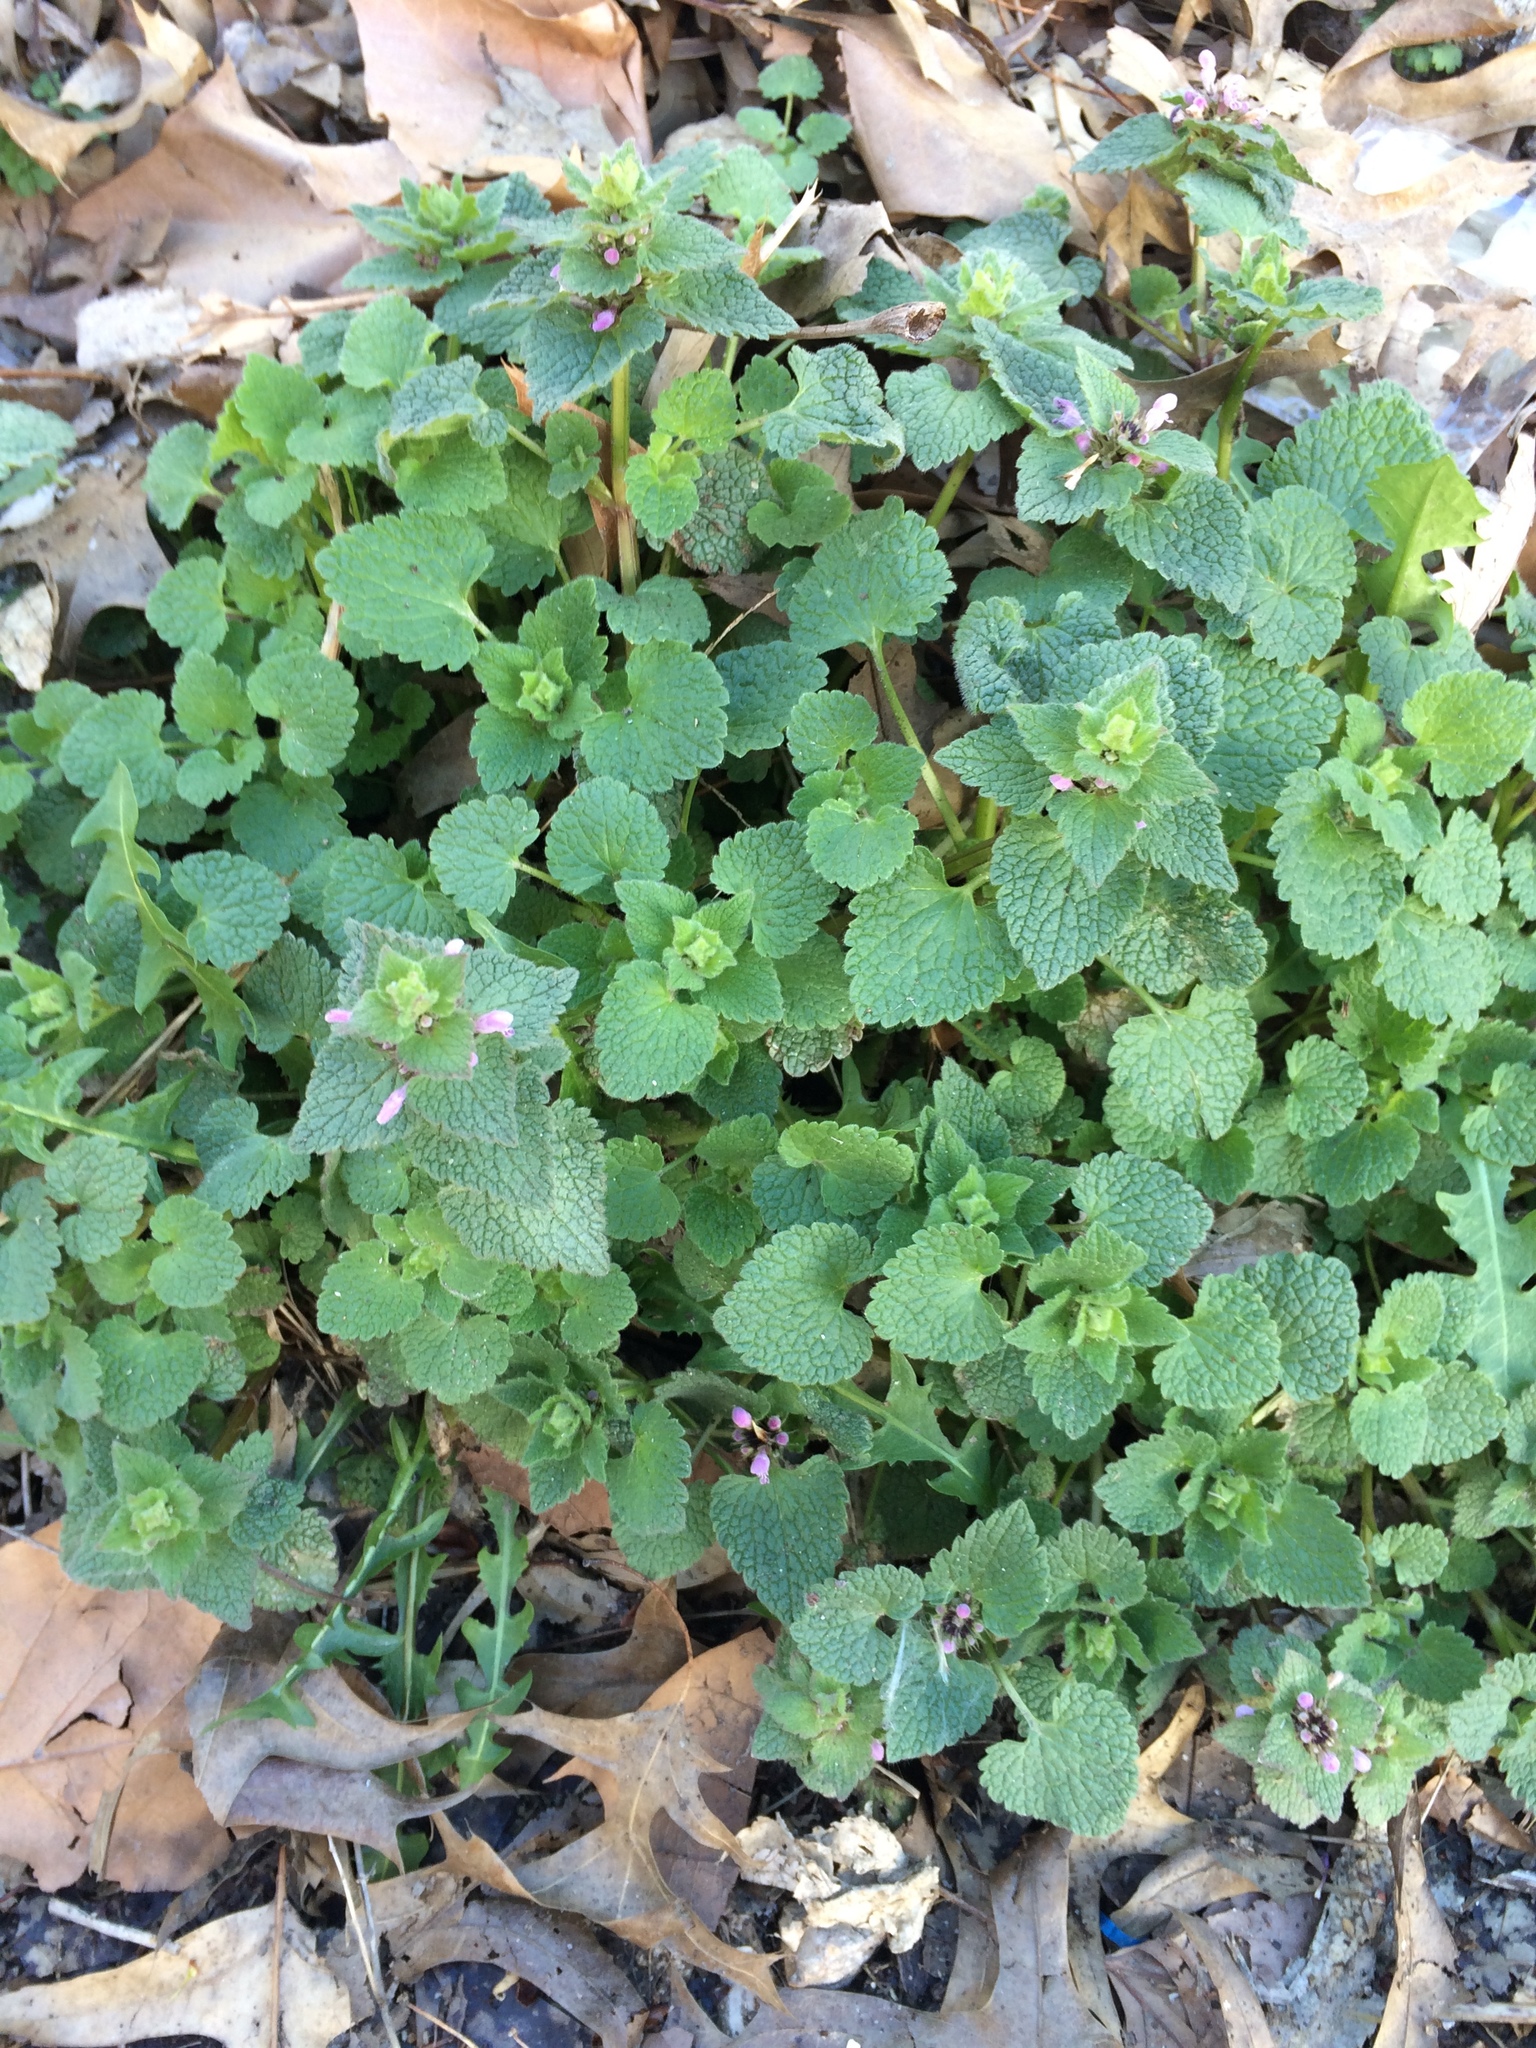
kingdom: Plantae
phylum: Tracheophyta
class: Magnoliopsida
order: Lamiales
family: Lamiaceae
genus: Lamium
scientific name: Lamium purpureum
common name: Red dead-nettle
